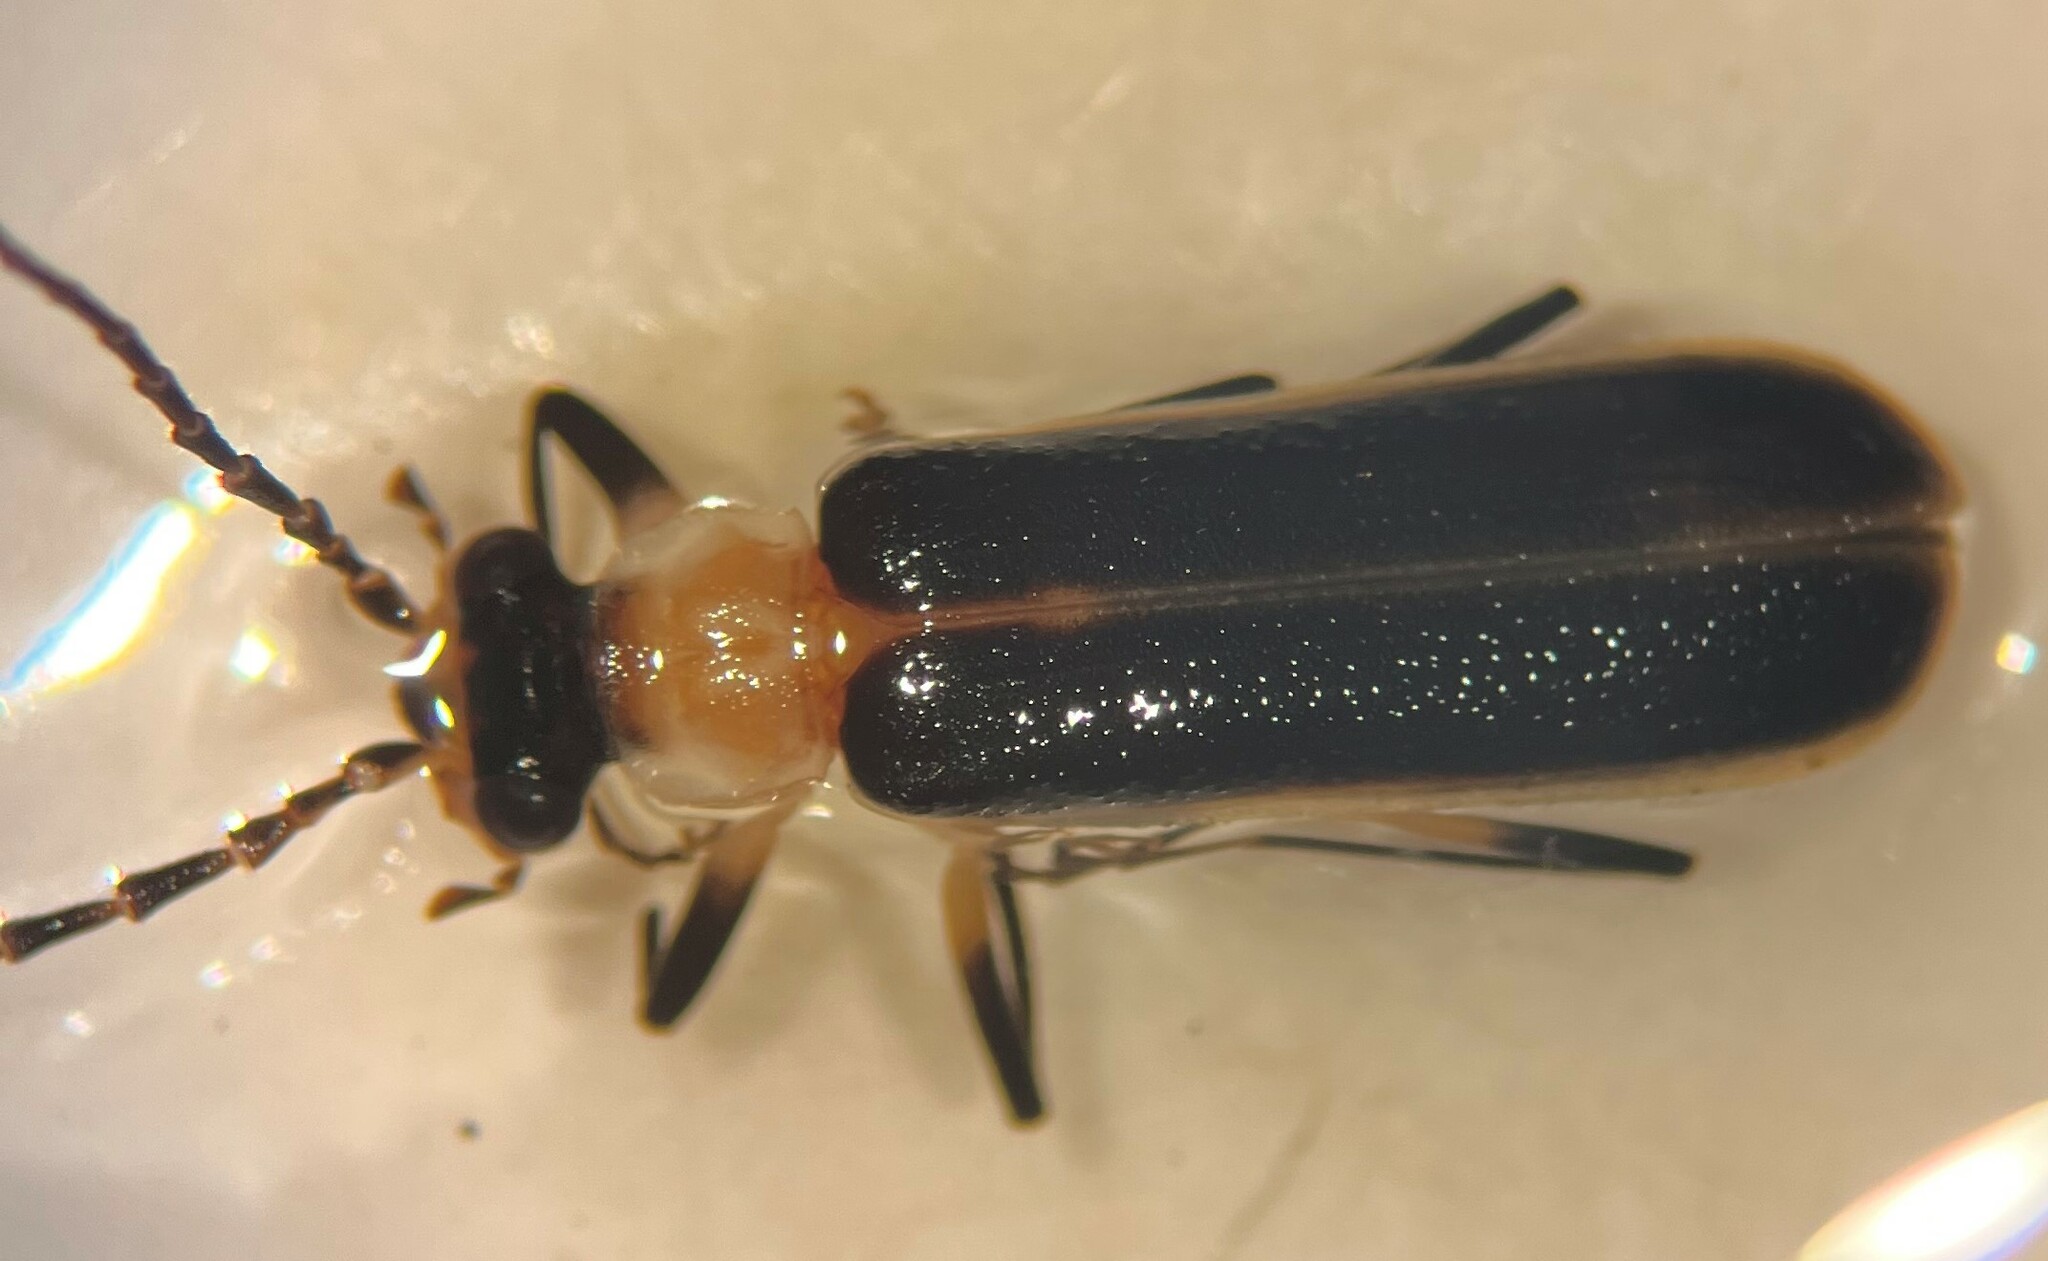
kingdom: Animalia
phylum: Arthropoda
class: Insecta
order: Coleoptera
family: Cantharidae
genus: Podabrus
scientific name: Podabrus flavicollis
